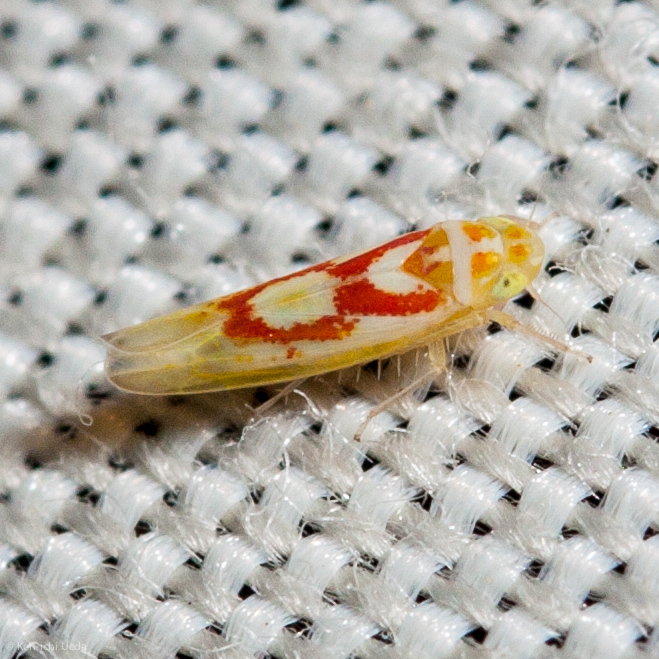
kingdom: Animalia
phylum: Arthropoda
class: Insecta
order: Hemiptera
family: Cicadellidae
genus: Zyginama
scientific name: Zyginama aucta
